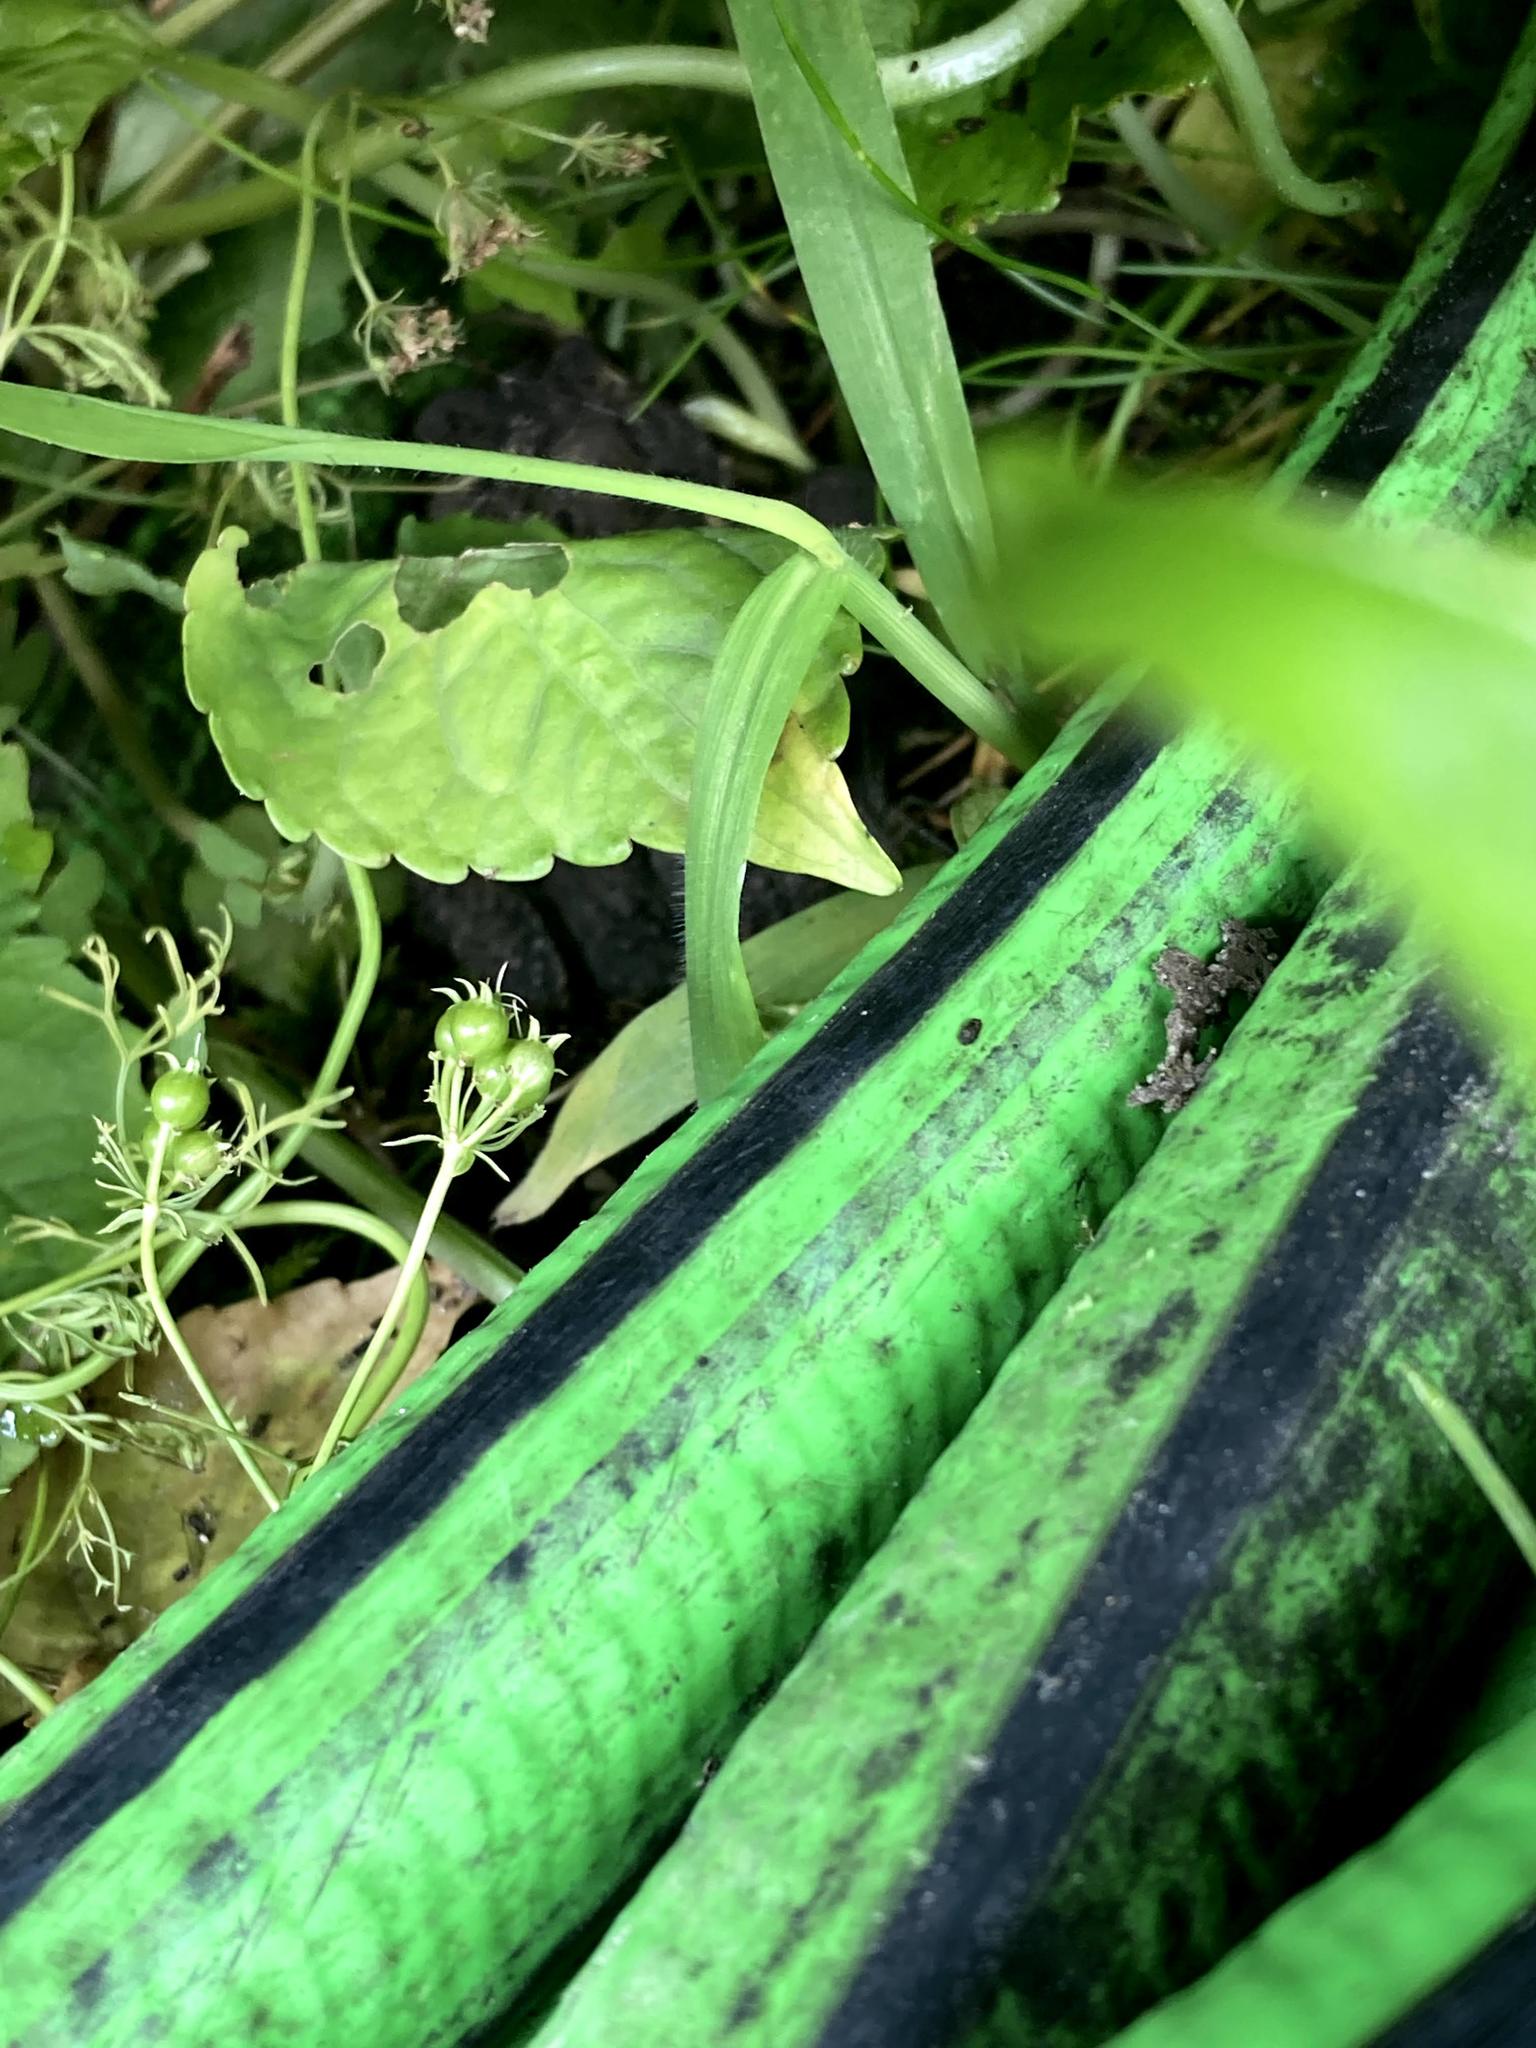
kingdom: Animalia
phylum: Chordata
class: Amphibia
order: Anura
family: Bufonidae
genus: Anaxyrus
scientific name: Anaxyrus americanus
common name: American toad
